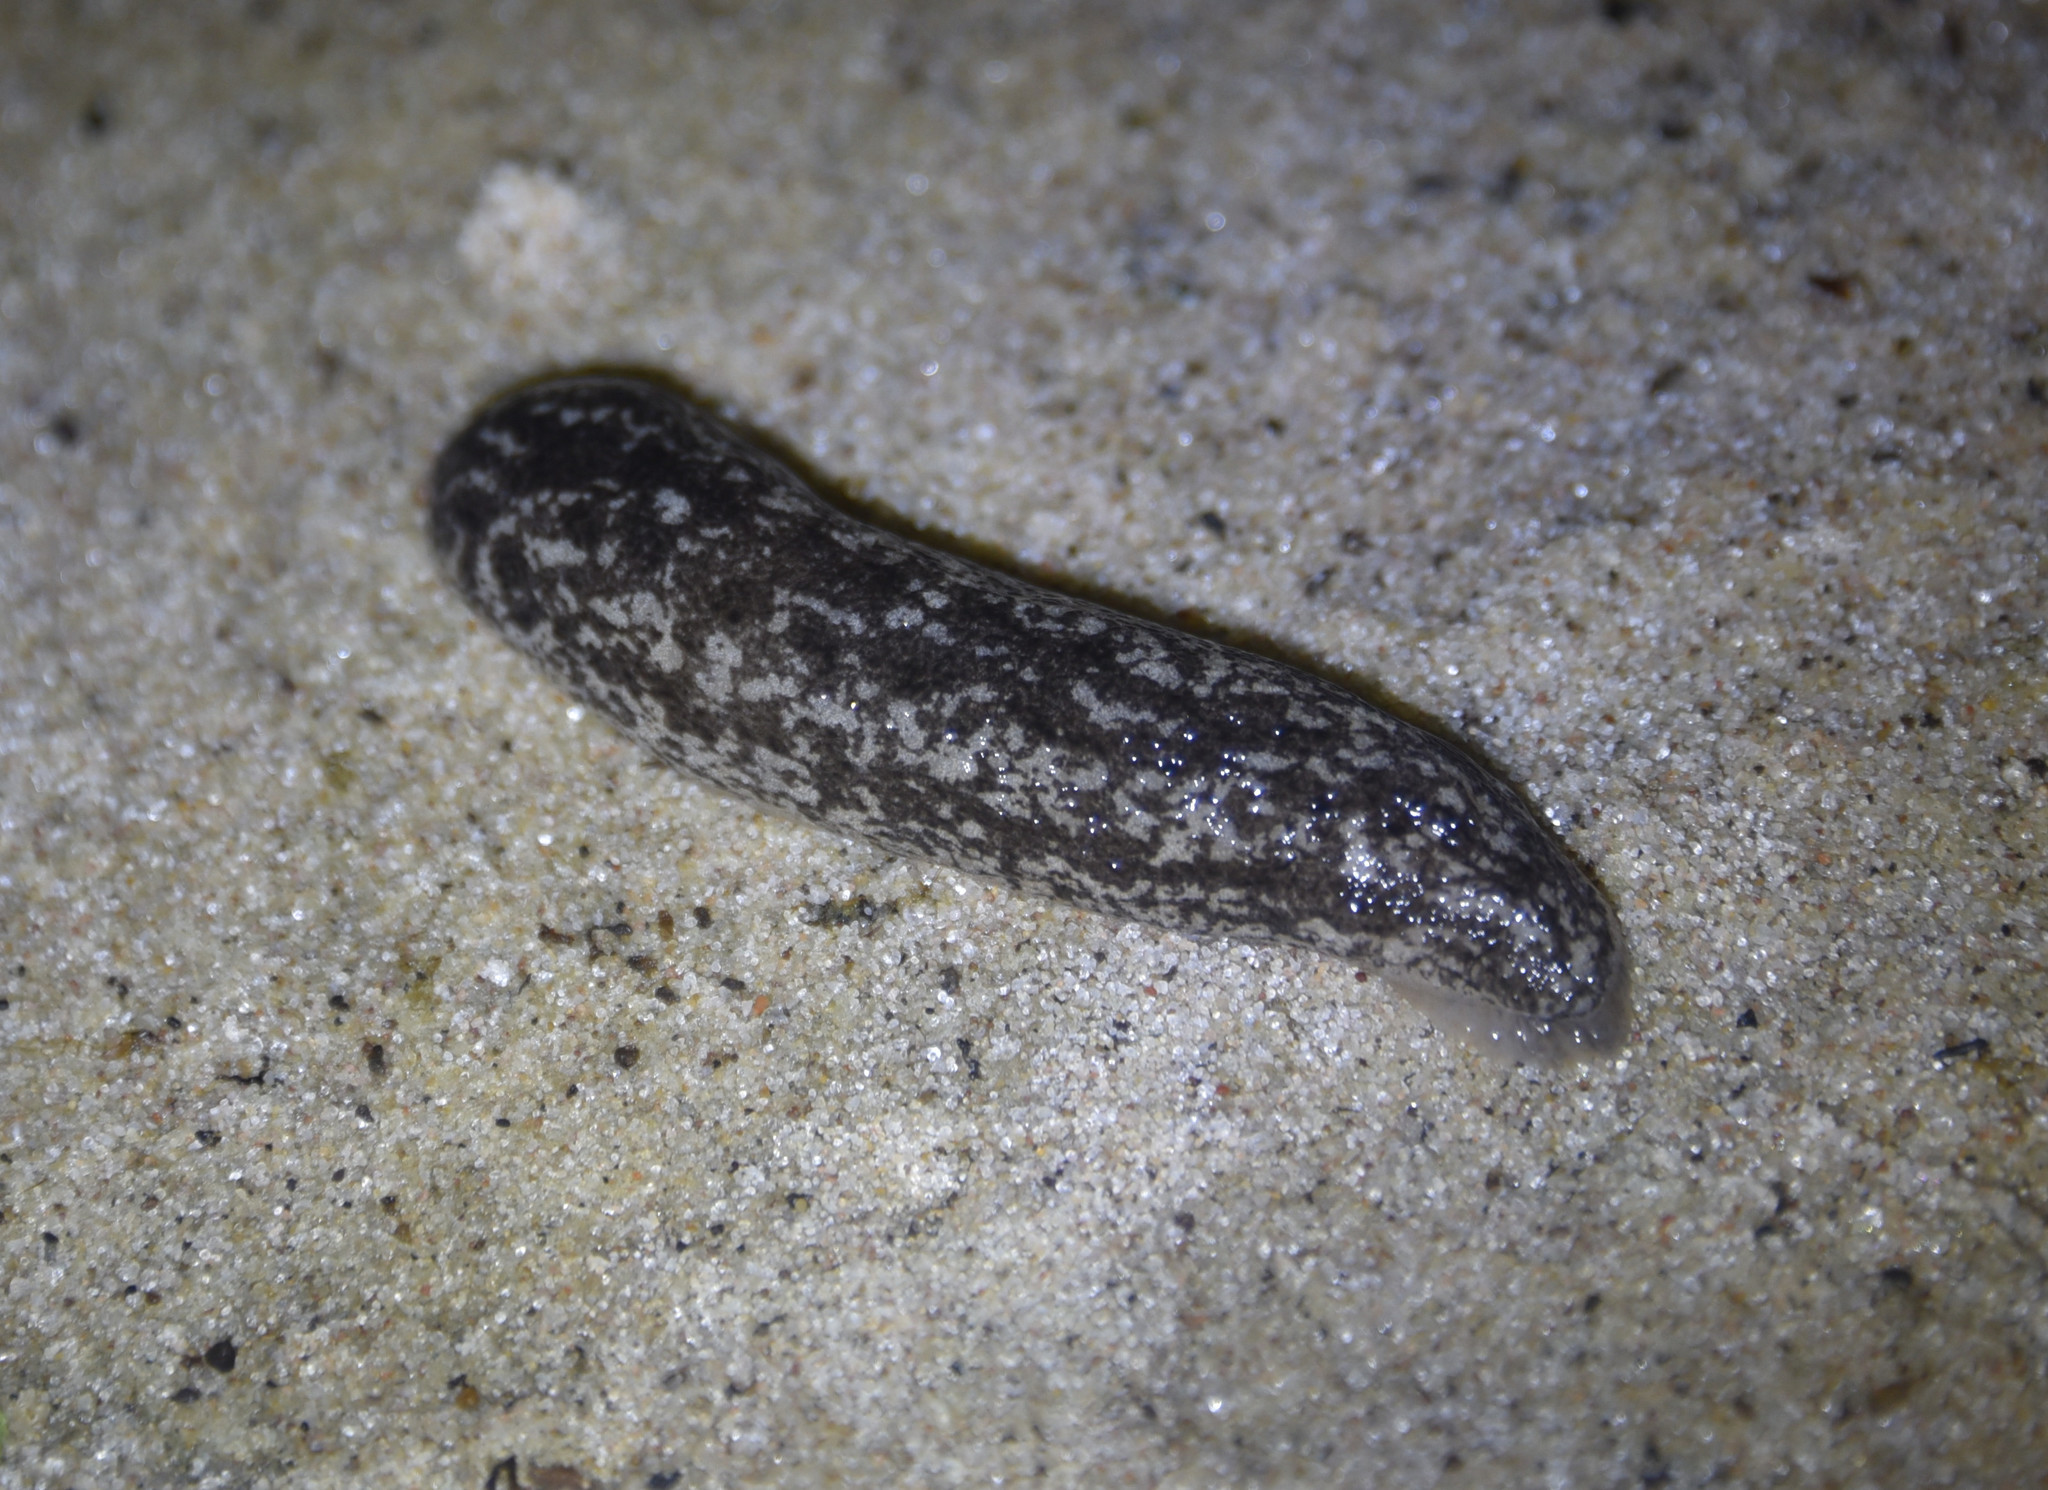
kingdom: Animalia
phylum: Mollusca
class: Gastropoda
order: Stylommatophora
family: Philomycidae
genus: Philomycus
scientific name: Philomycus carolinianus
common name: Carolina mantleslug
